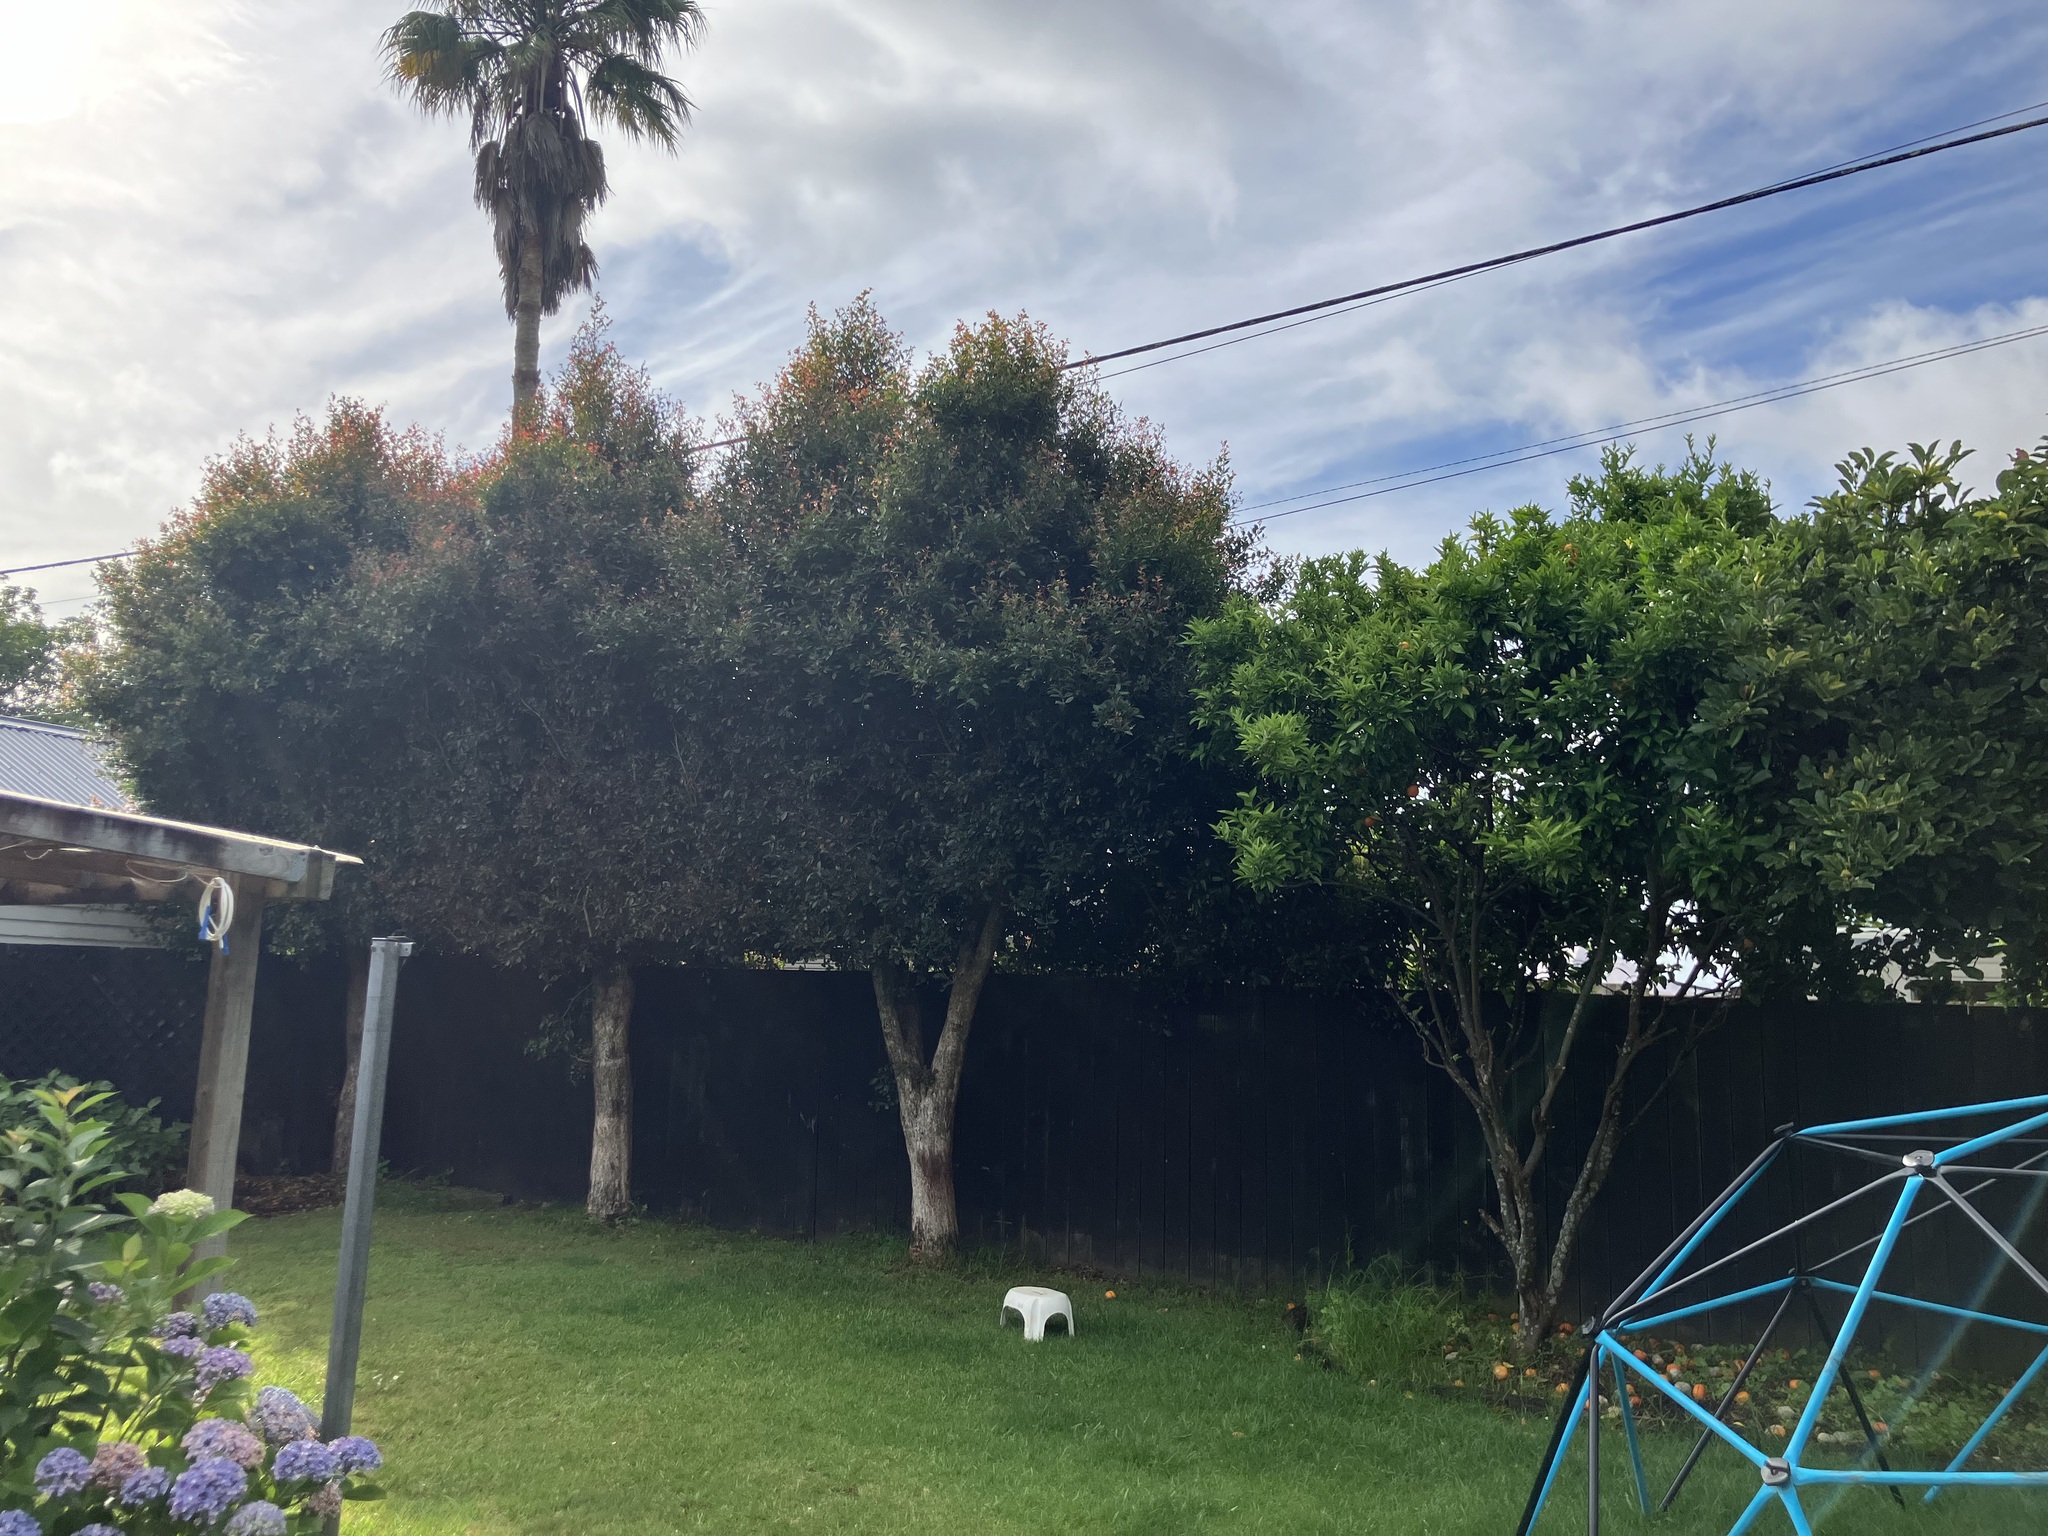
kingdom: Fungi
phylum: Basidiomycota
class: Pucciniomycetes
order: Pucciniales
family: Sphaerophragmiaceae
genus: Austropuccinia
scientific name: Austropuccinia psidii
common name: Myrtle rust
